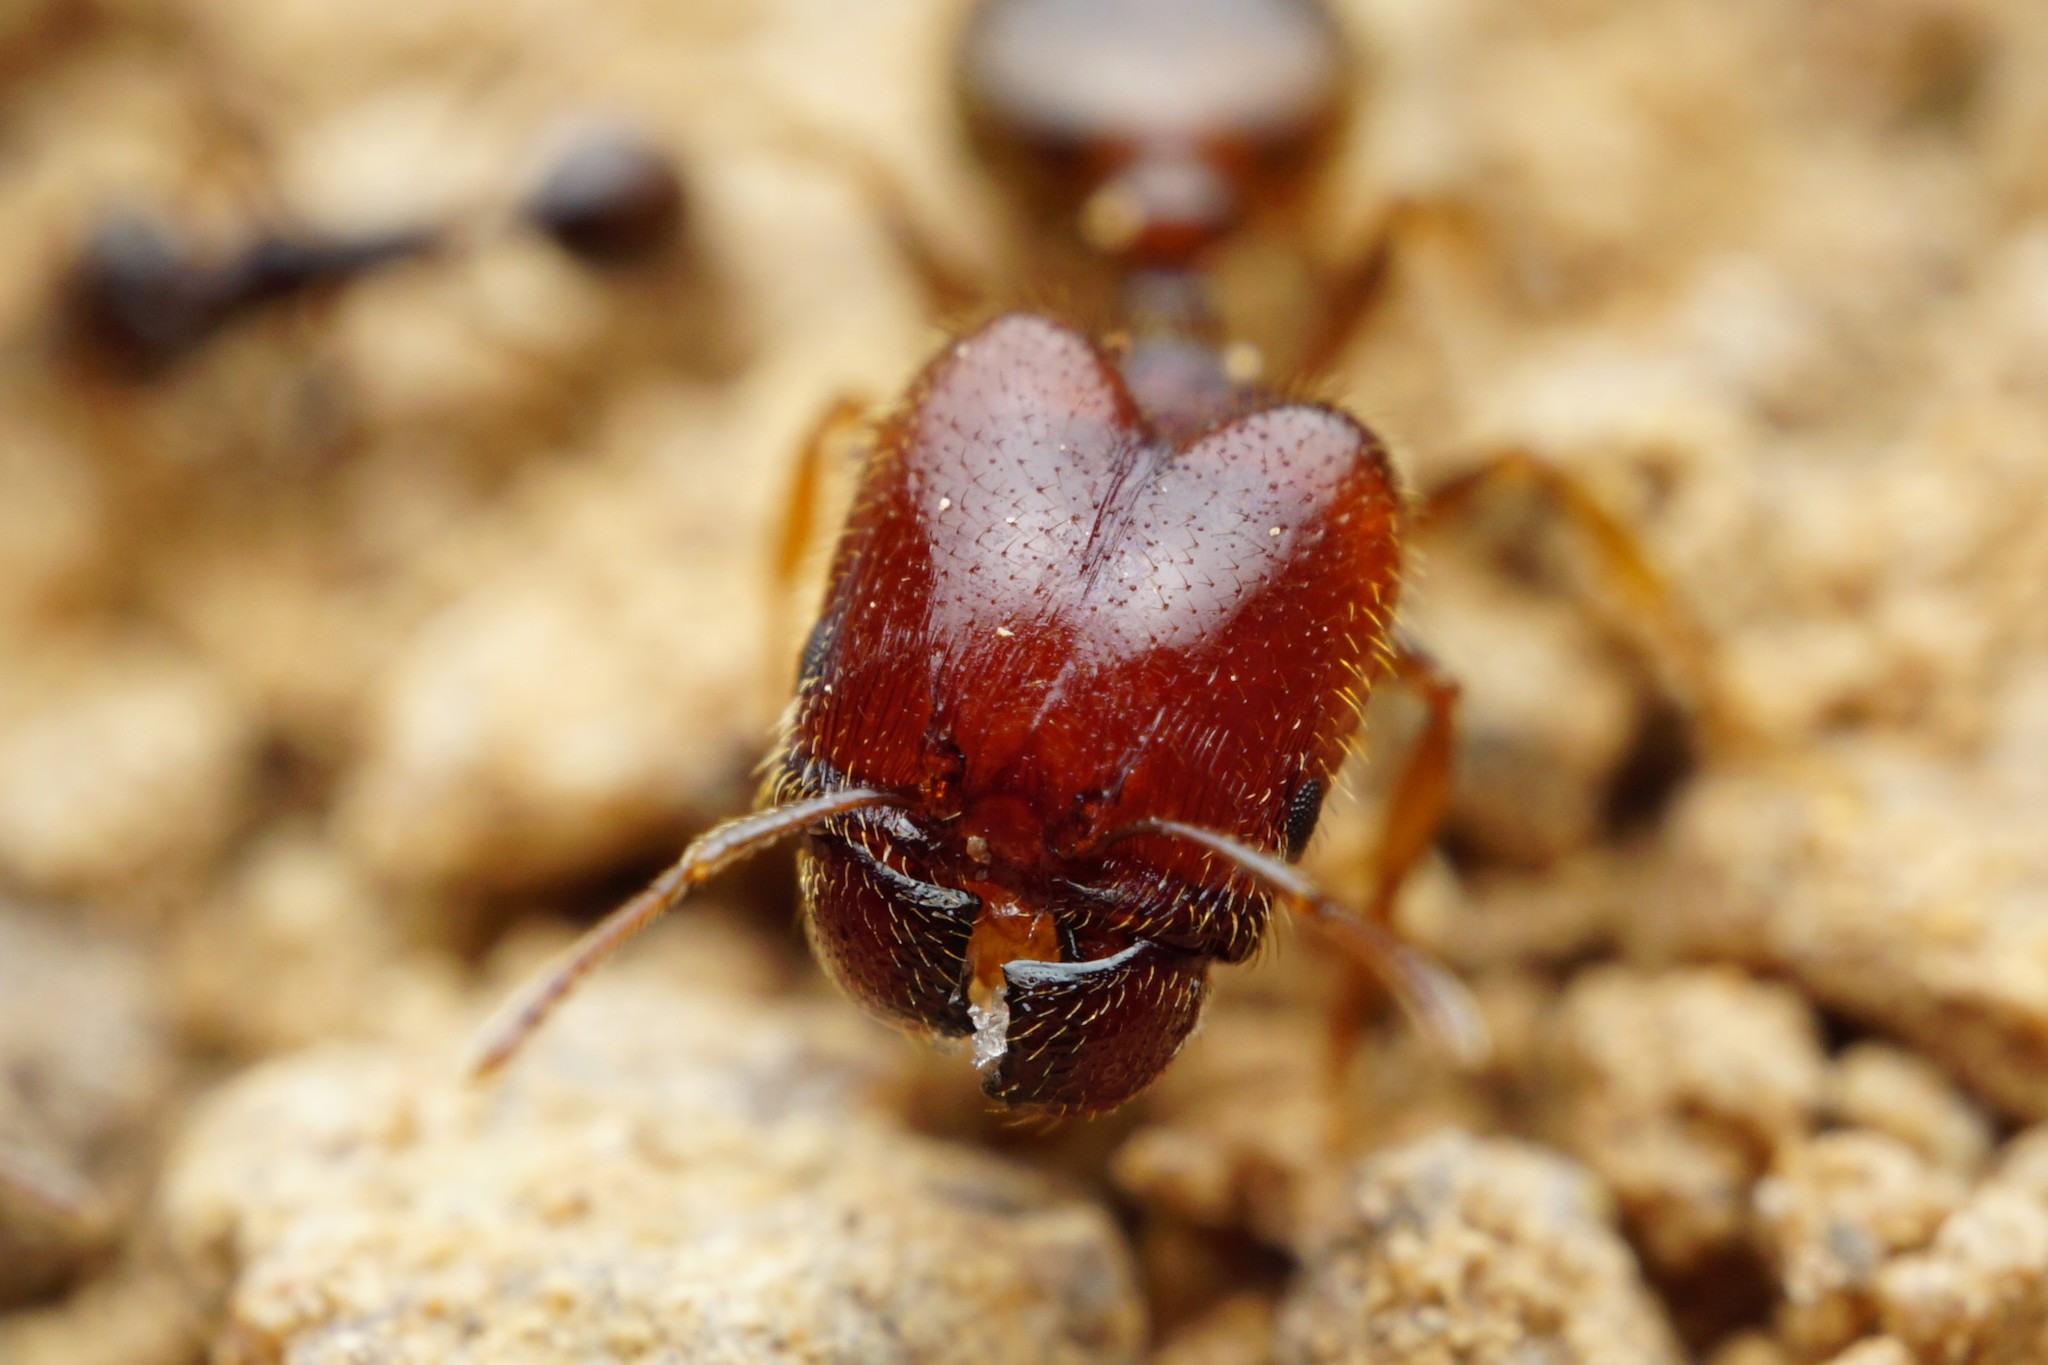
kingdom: Animalia
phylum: Arthropoda
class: Insecta
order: Hymenoptera
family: Formicidae
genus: Pheidole
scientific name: Pheidole xerophila
